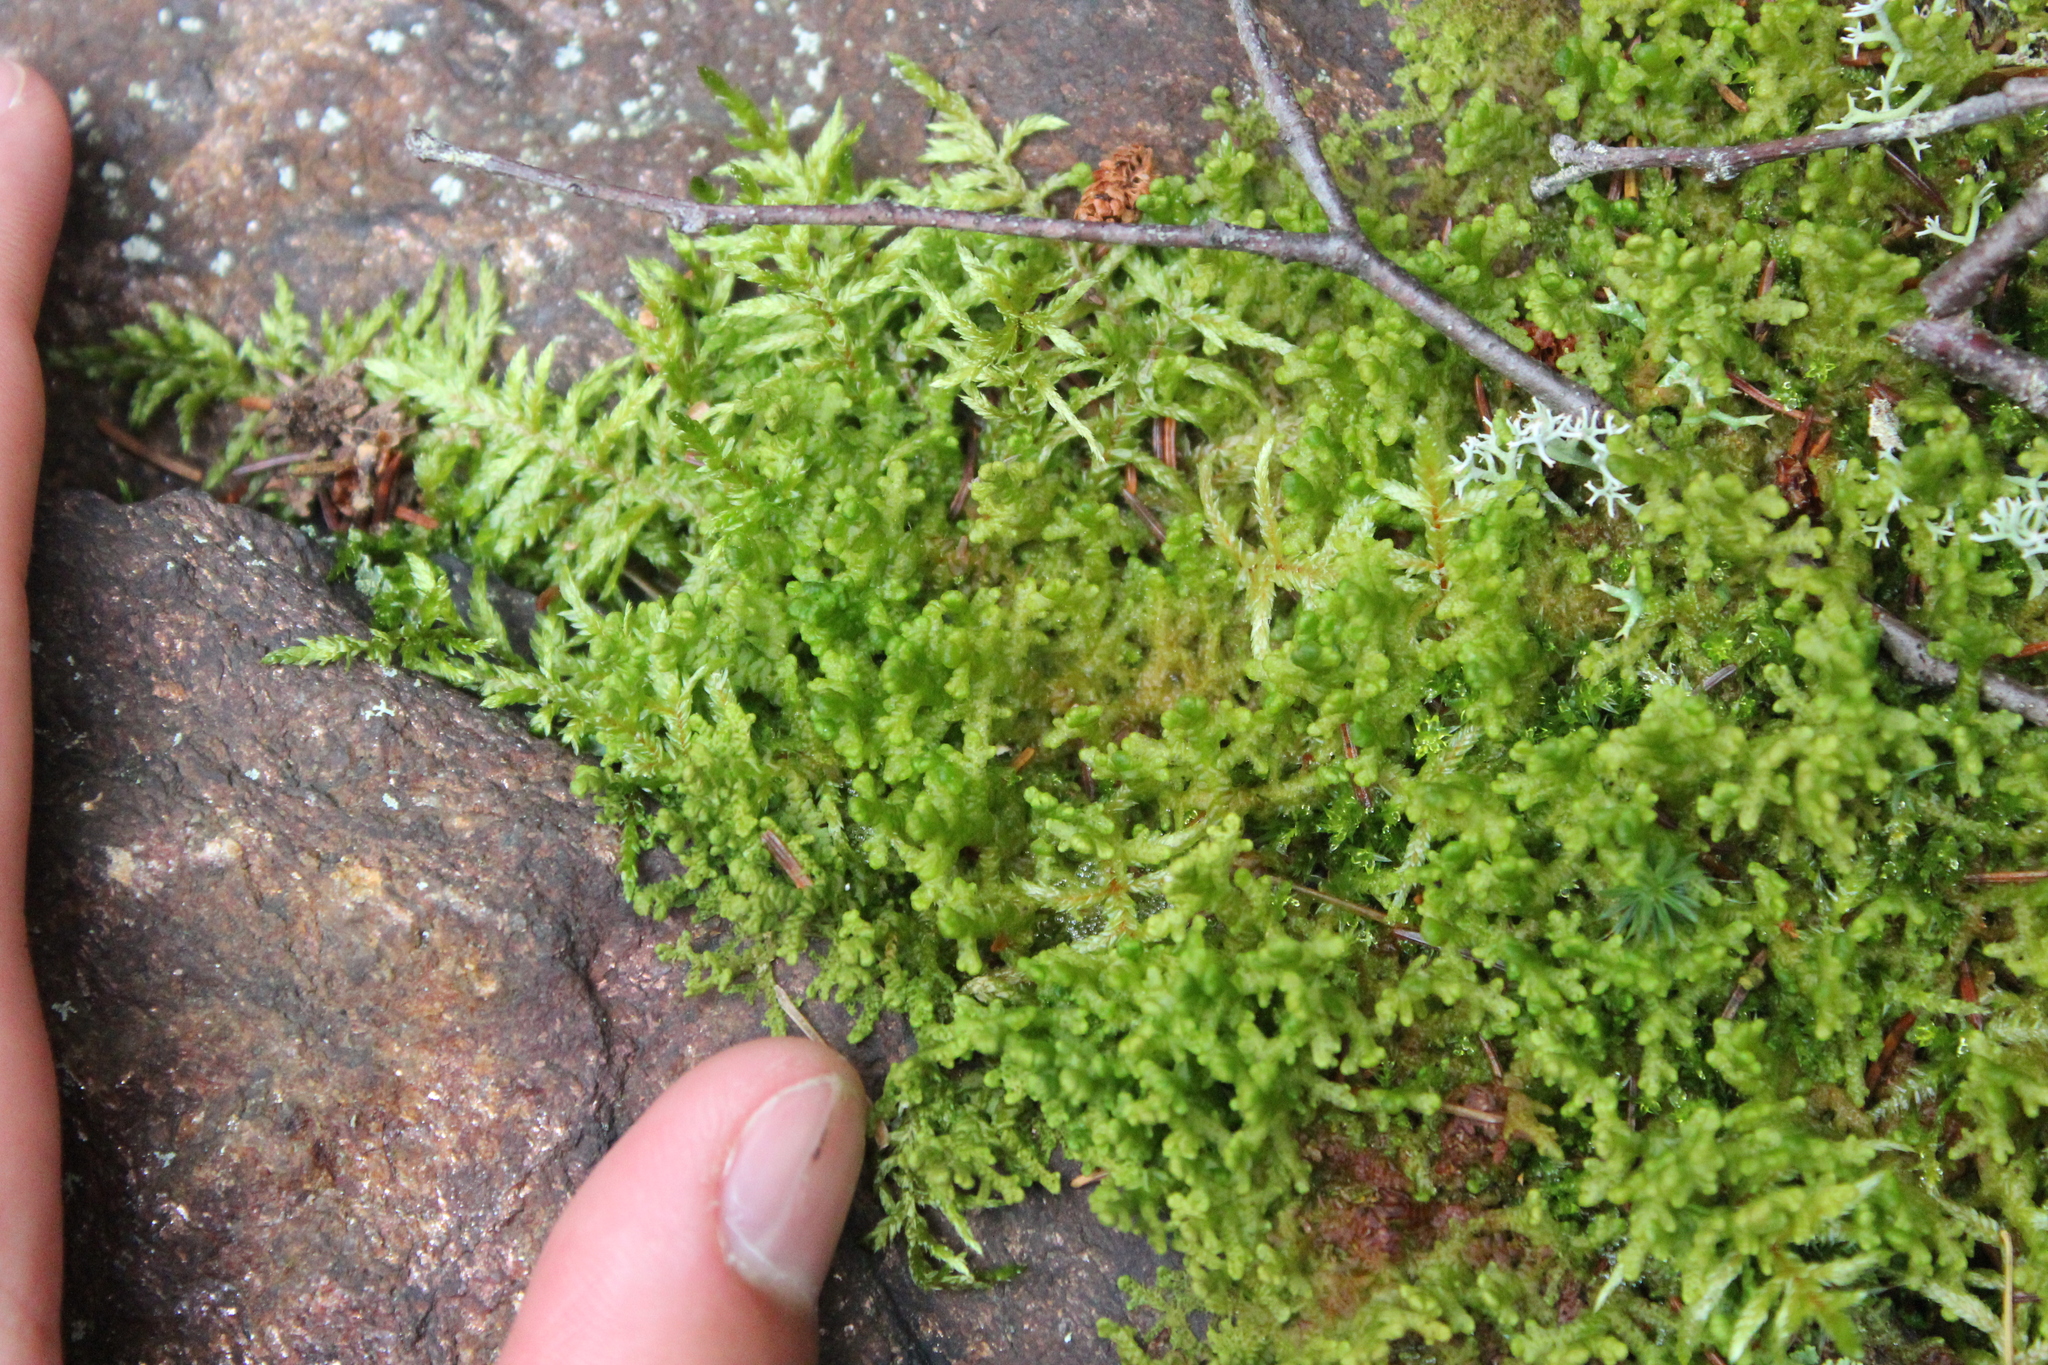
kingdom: Plantae
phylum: Marchantiophyta
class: Jungermanniopsida
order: Ptilidiales
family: Ptilidiaceae
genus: Ptilidium
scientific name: Ptilidium ciliare
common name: Ciliate fringewort
